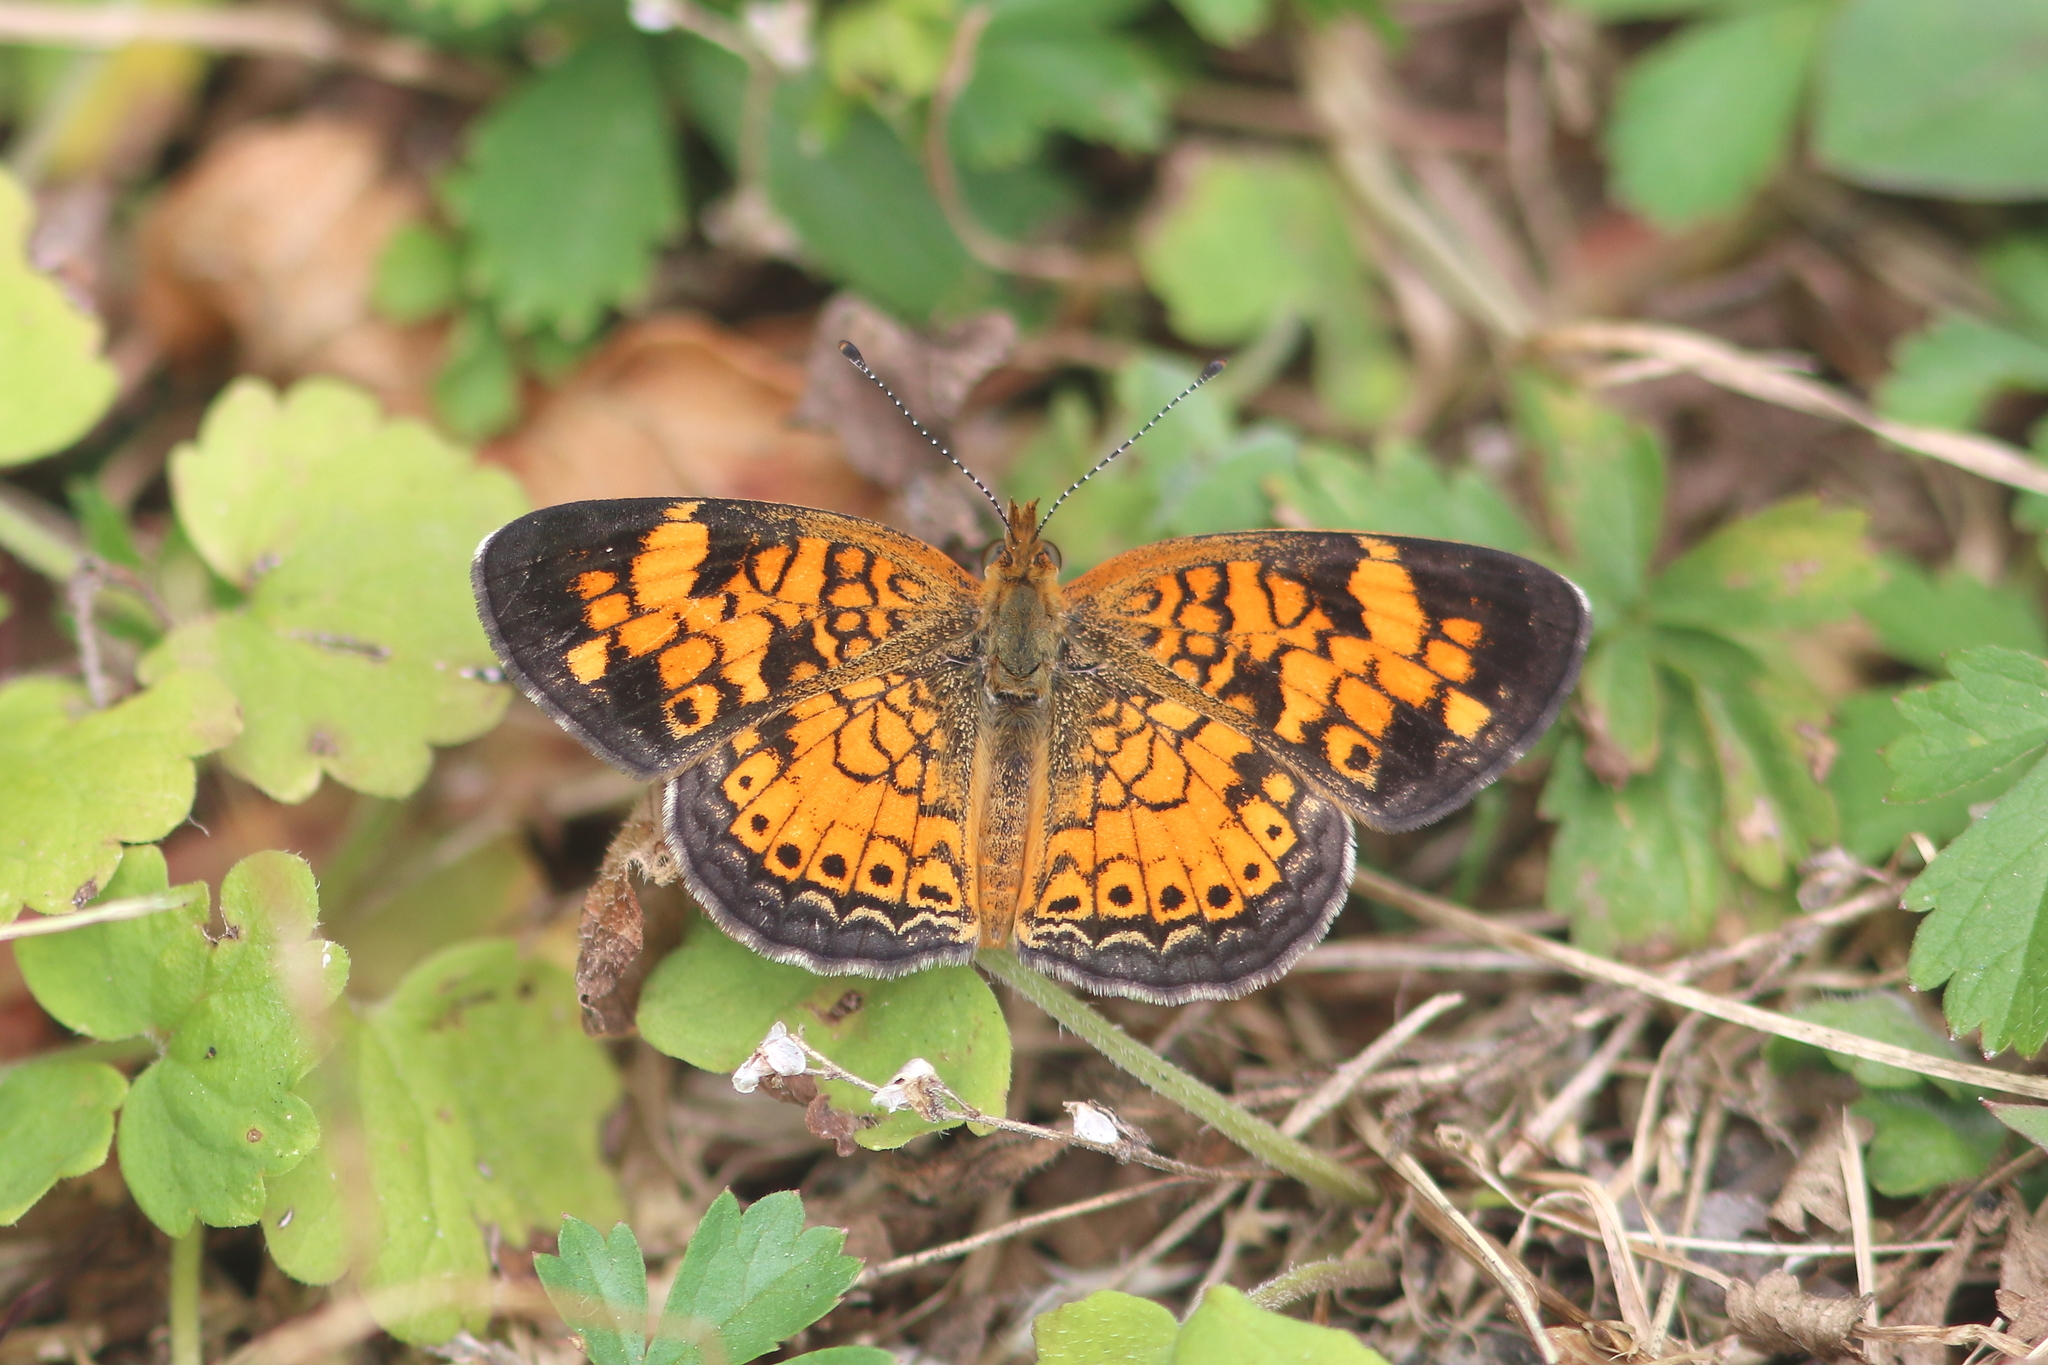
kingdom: Animalia
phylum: Arthropoda
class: Insecta
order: Lepidoptera
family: Nymphalidae
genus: Phyciodes
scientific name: Phyciodes tharos
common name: Pearl crescent
